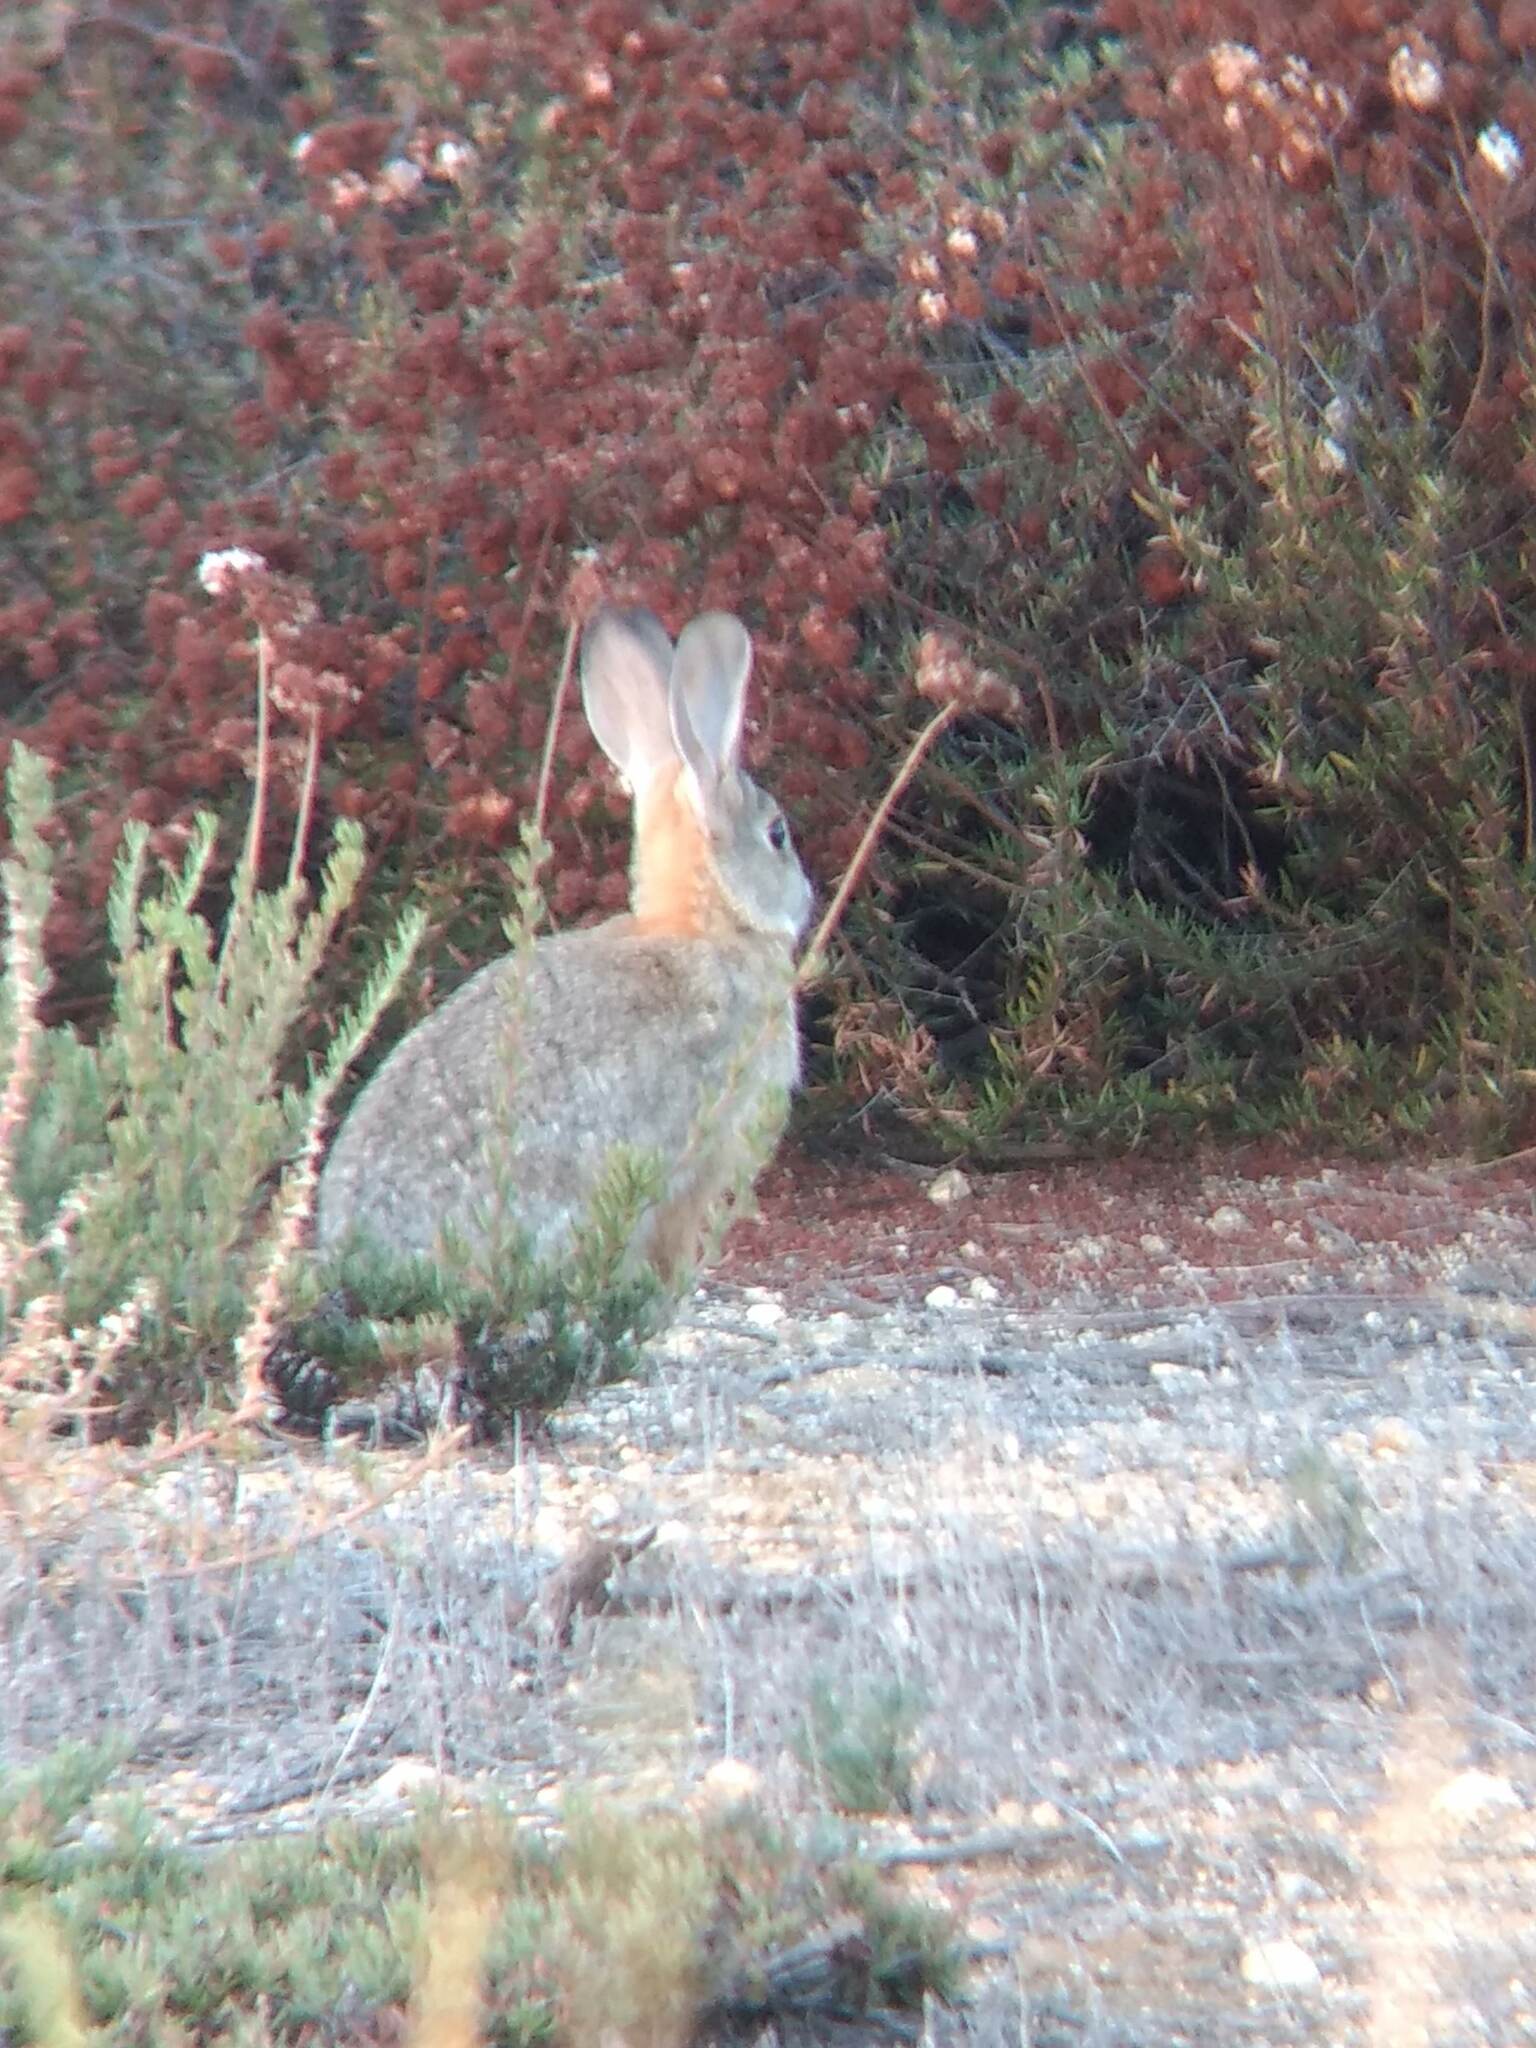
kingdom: Animalia
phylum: Chordata
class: Mammalia
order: Lagomorpha
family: Leporidae
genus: Sylvilagus
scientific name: Sylvilagus audubonii
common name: Desert cottontail
